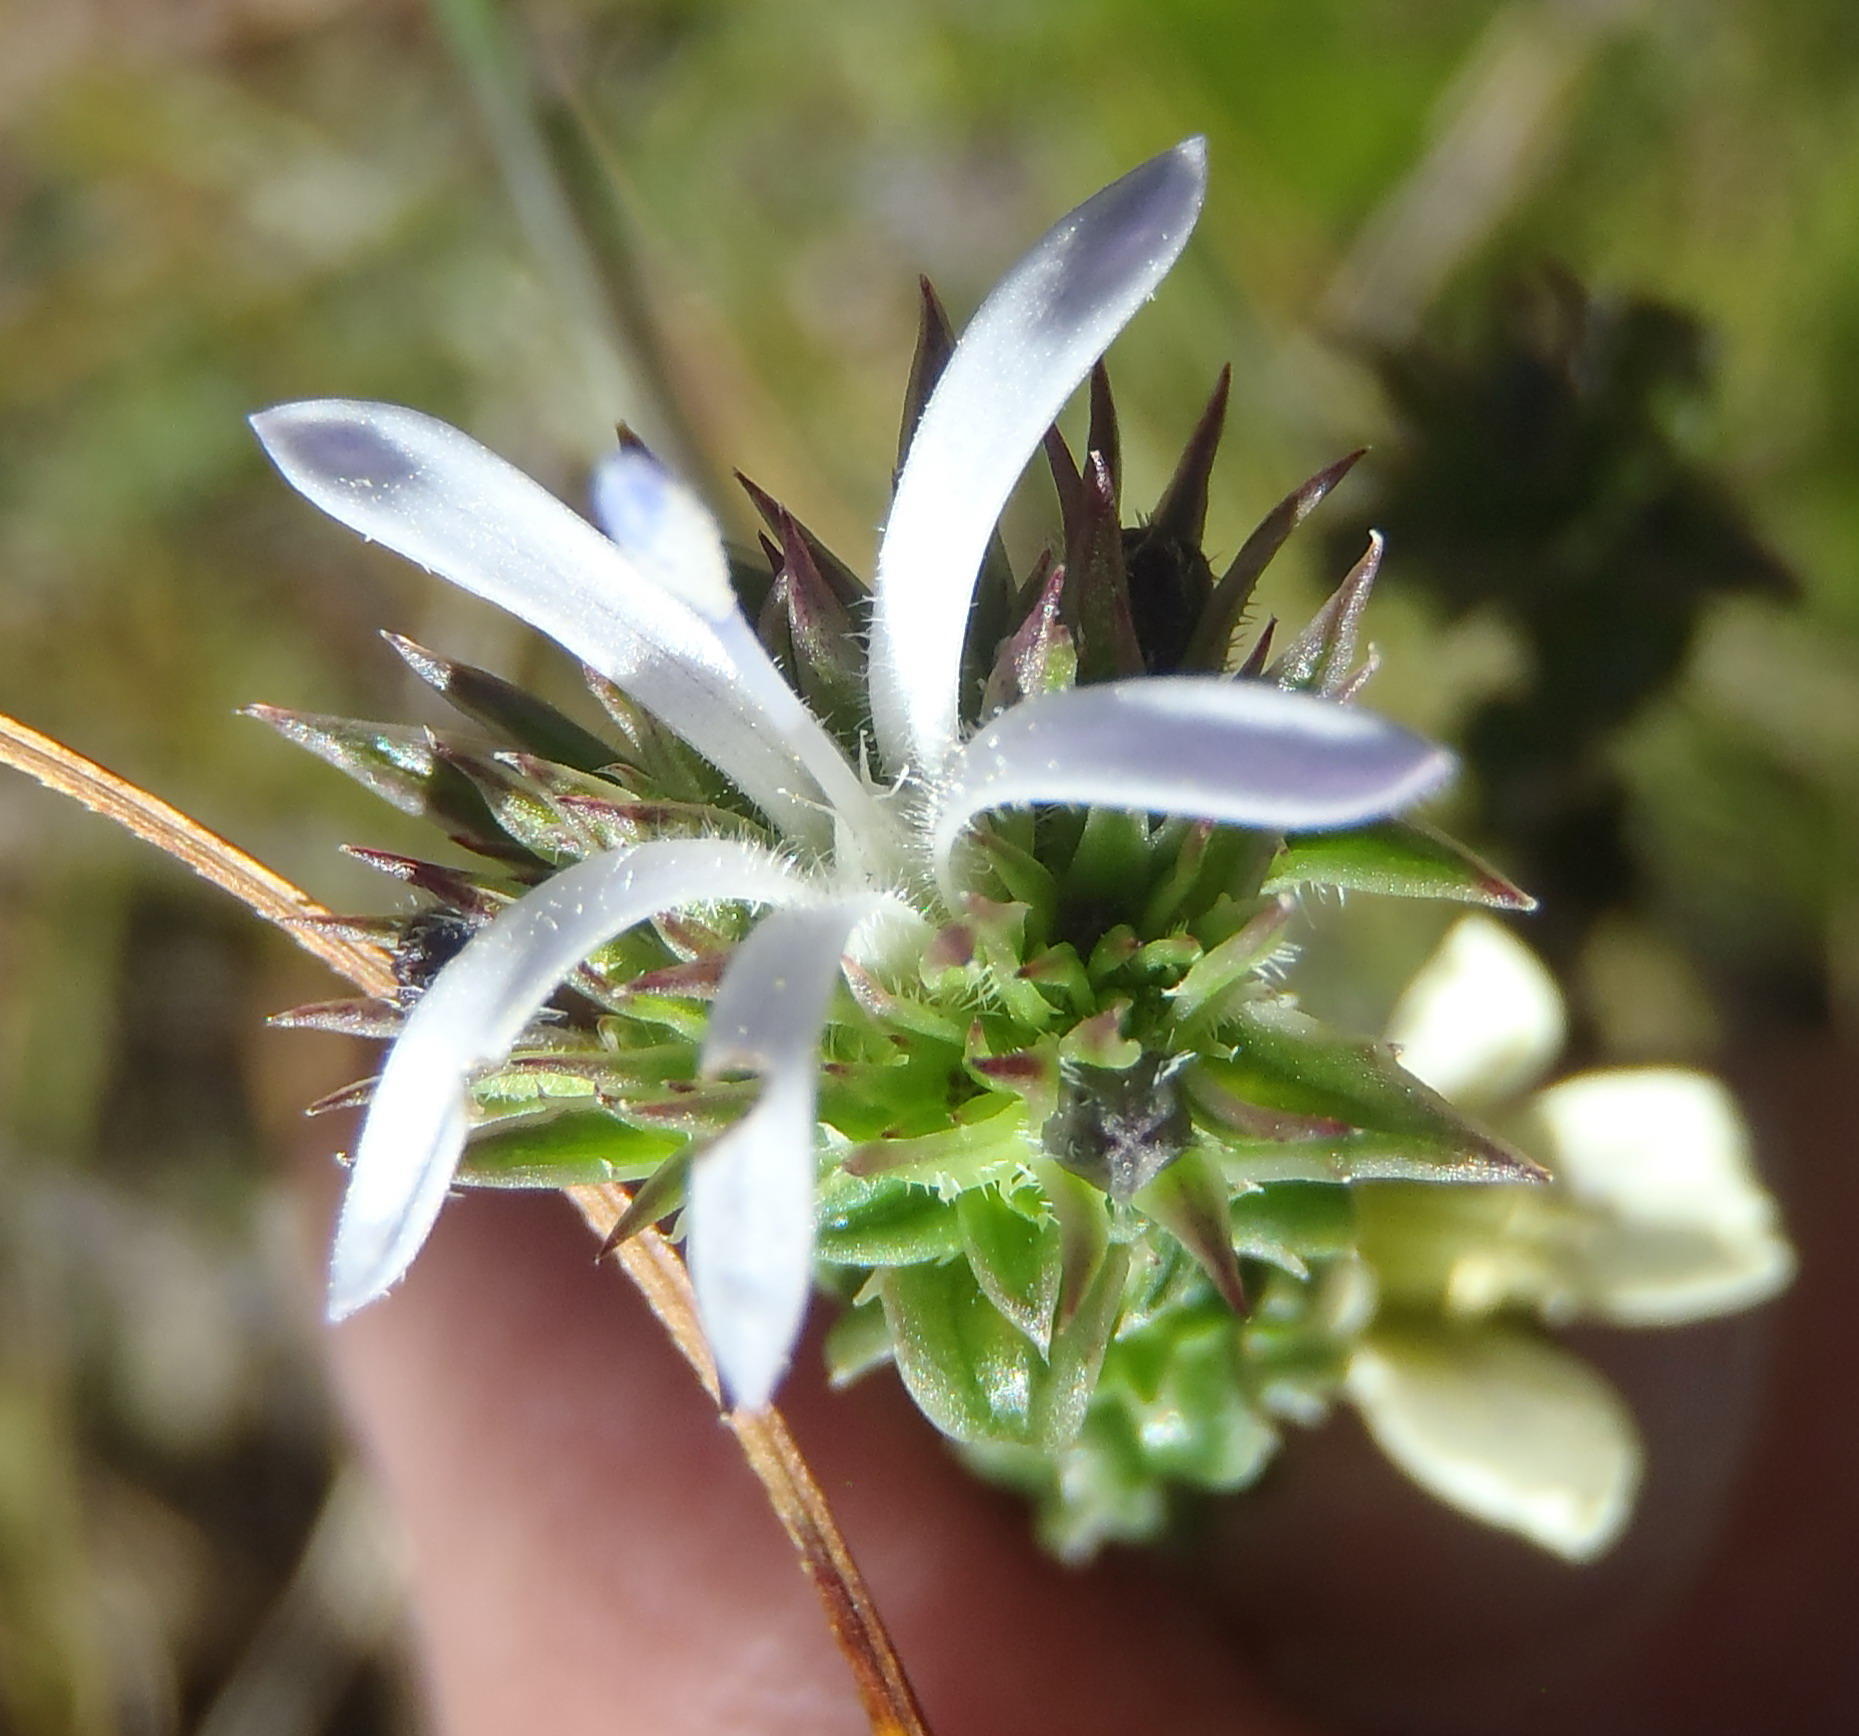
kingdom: Plantae
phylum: Tracheophyta
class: Magnoliopsida
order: Asterales
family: Campanulaceae
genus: Wahlenbergia
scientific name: Wahlenbergia desmantha
